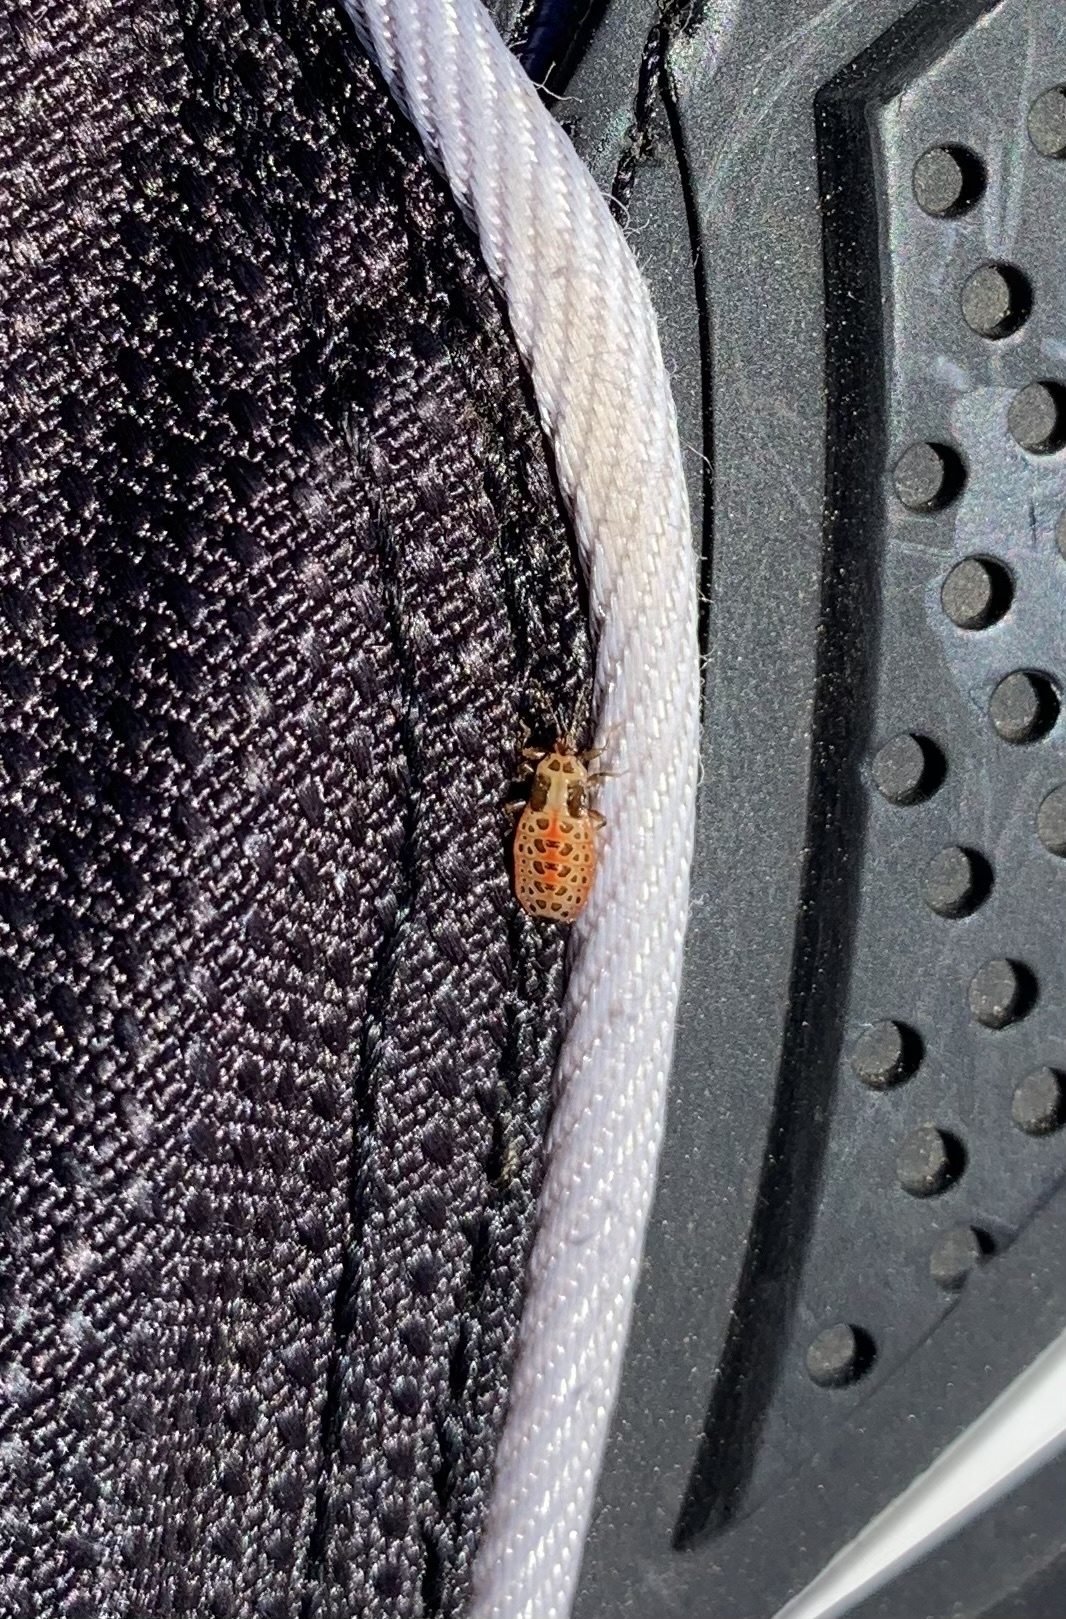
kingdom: Animalia
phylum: Arthropoda
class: Insecta
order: Hemiptera
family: Aradidae
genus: Isodermus
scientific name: Isodermus gayi
